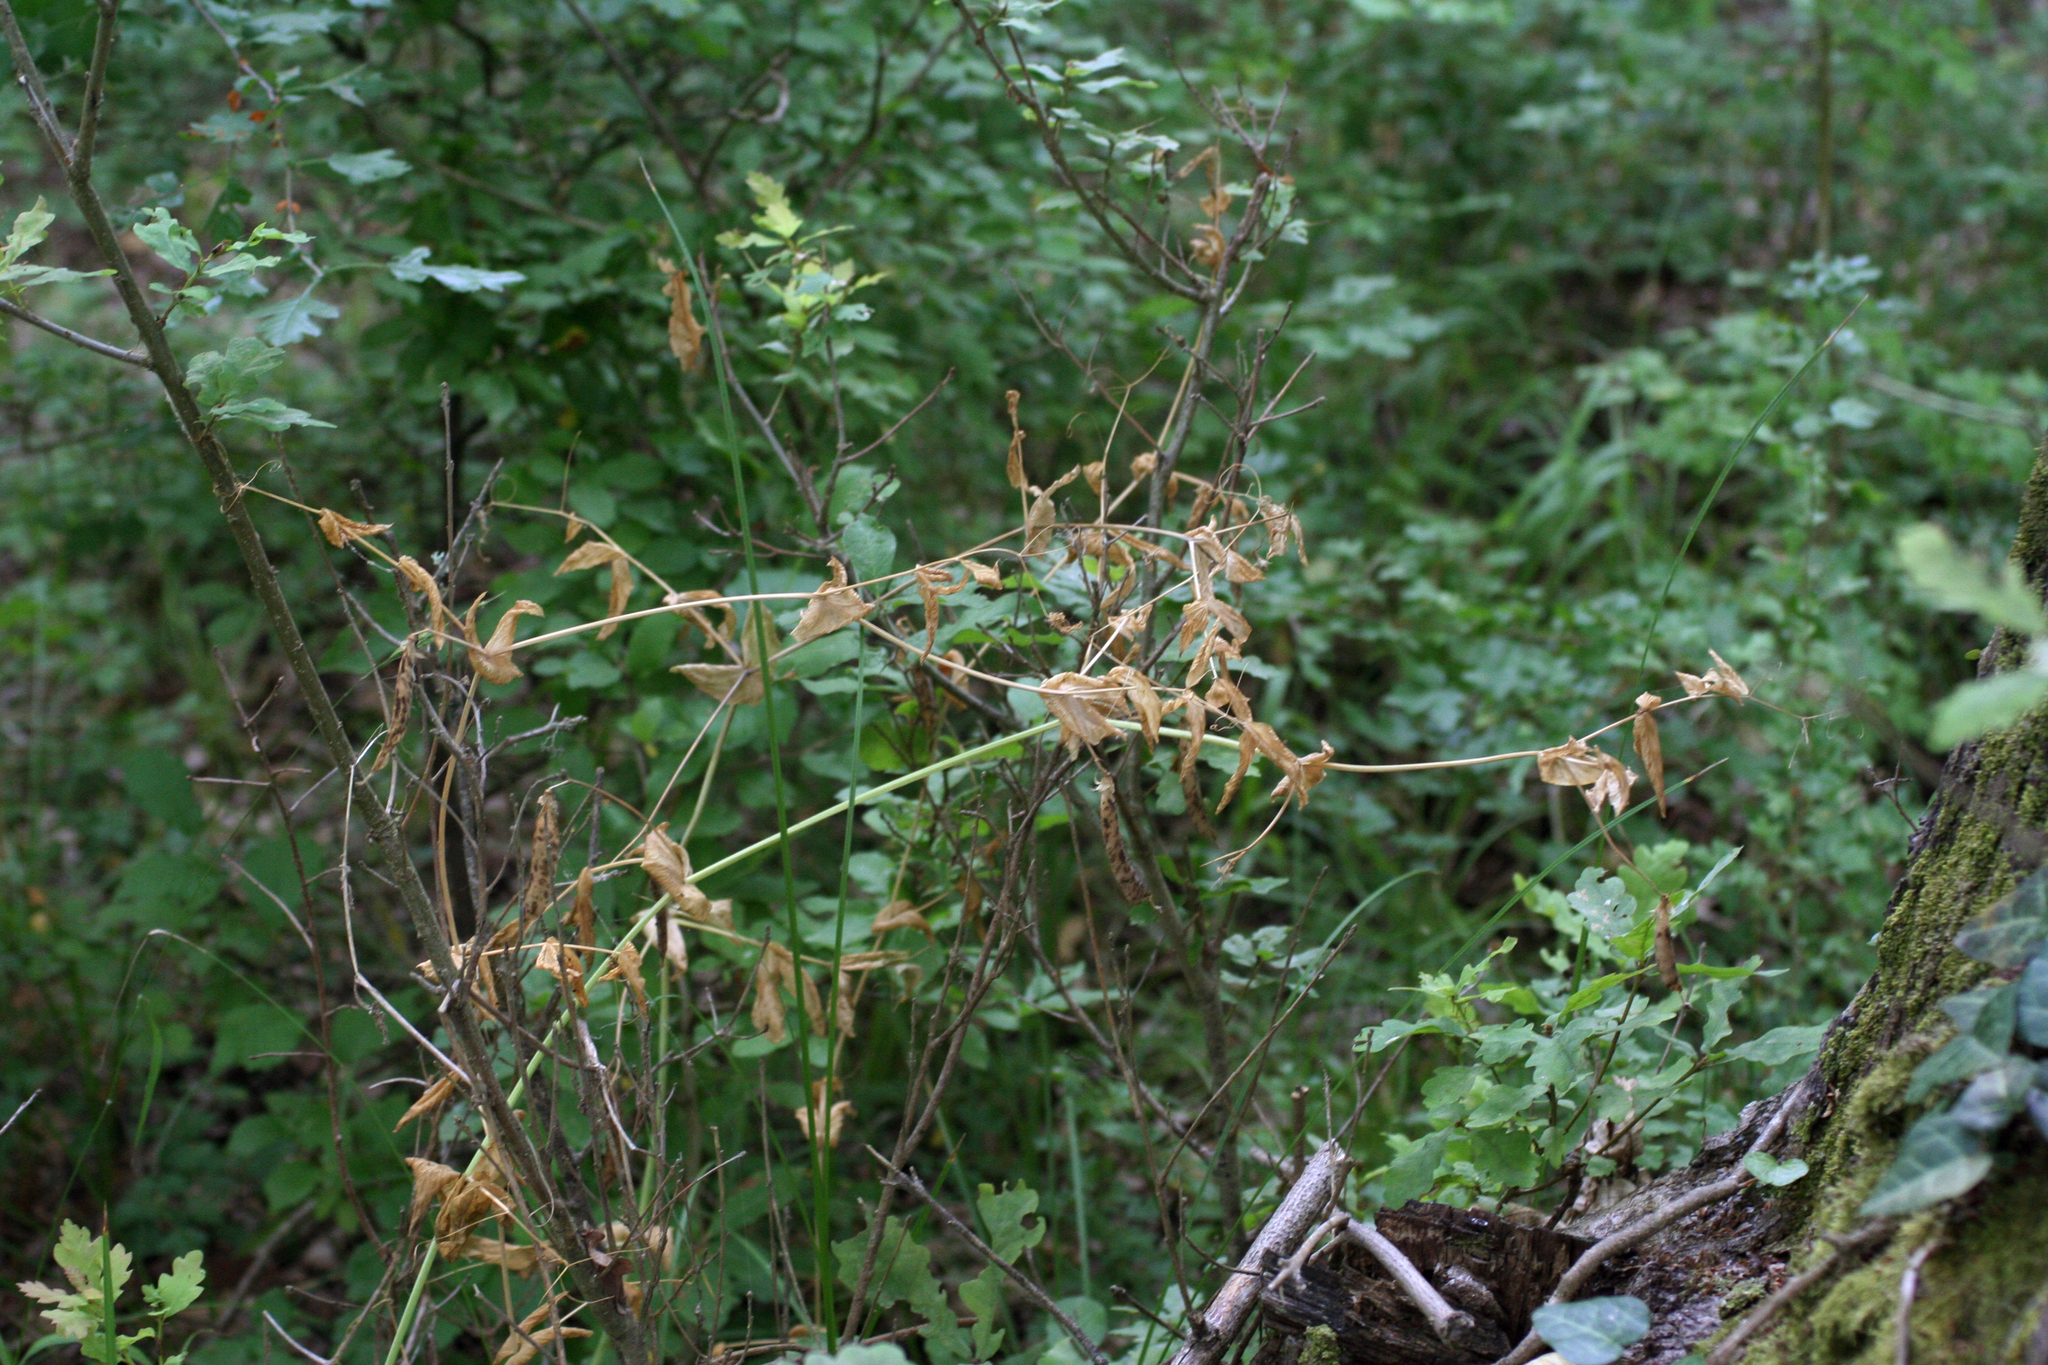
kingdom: Plantae
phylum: Tracheophyta
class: Magnoliopsida
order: Fabales
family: Fabaceae
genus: Lathyrus
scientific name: Lathyrus oleraceus
